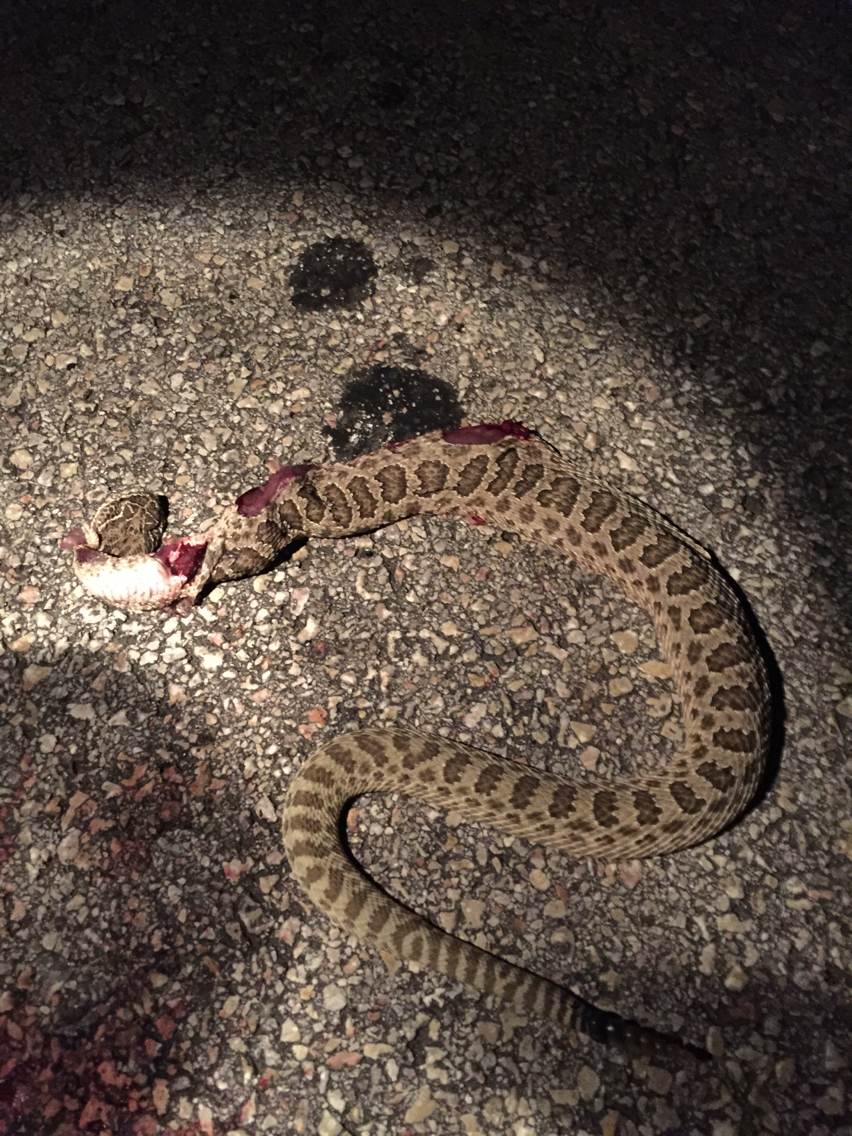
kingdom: Animalia
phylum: Chordata
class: Squamata
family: Viperidae
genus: Crotalus
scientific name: Crotalus viridis
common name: Prairie rattlesnake
